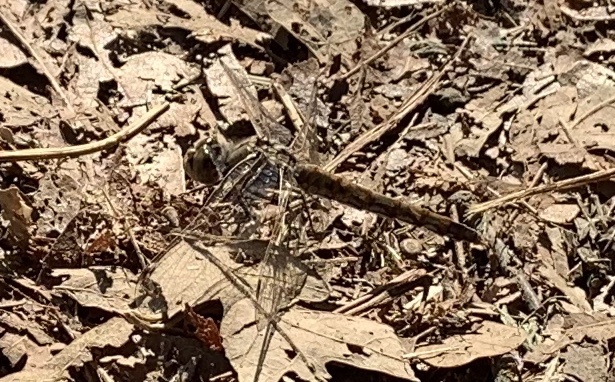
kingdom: Animalia
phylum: Arthropoda
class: Insecta
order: Odonata
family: Libellulidae
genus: Sympetrum
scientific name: Sympetrum corruptum
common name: Variegated meadowhawk
